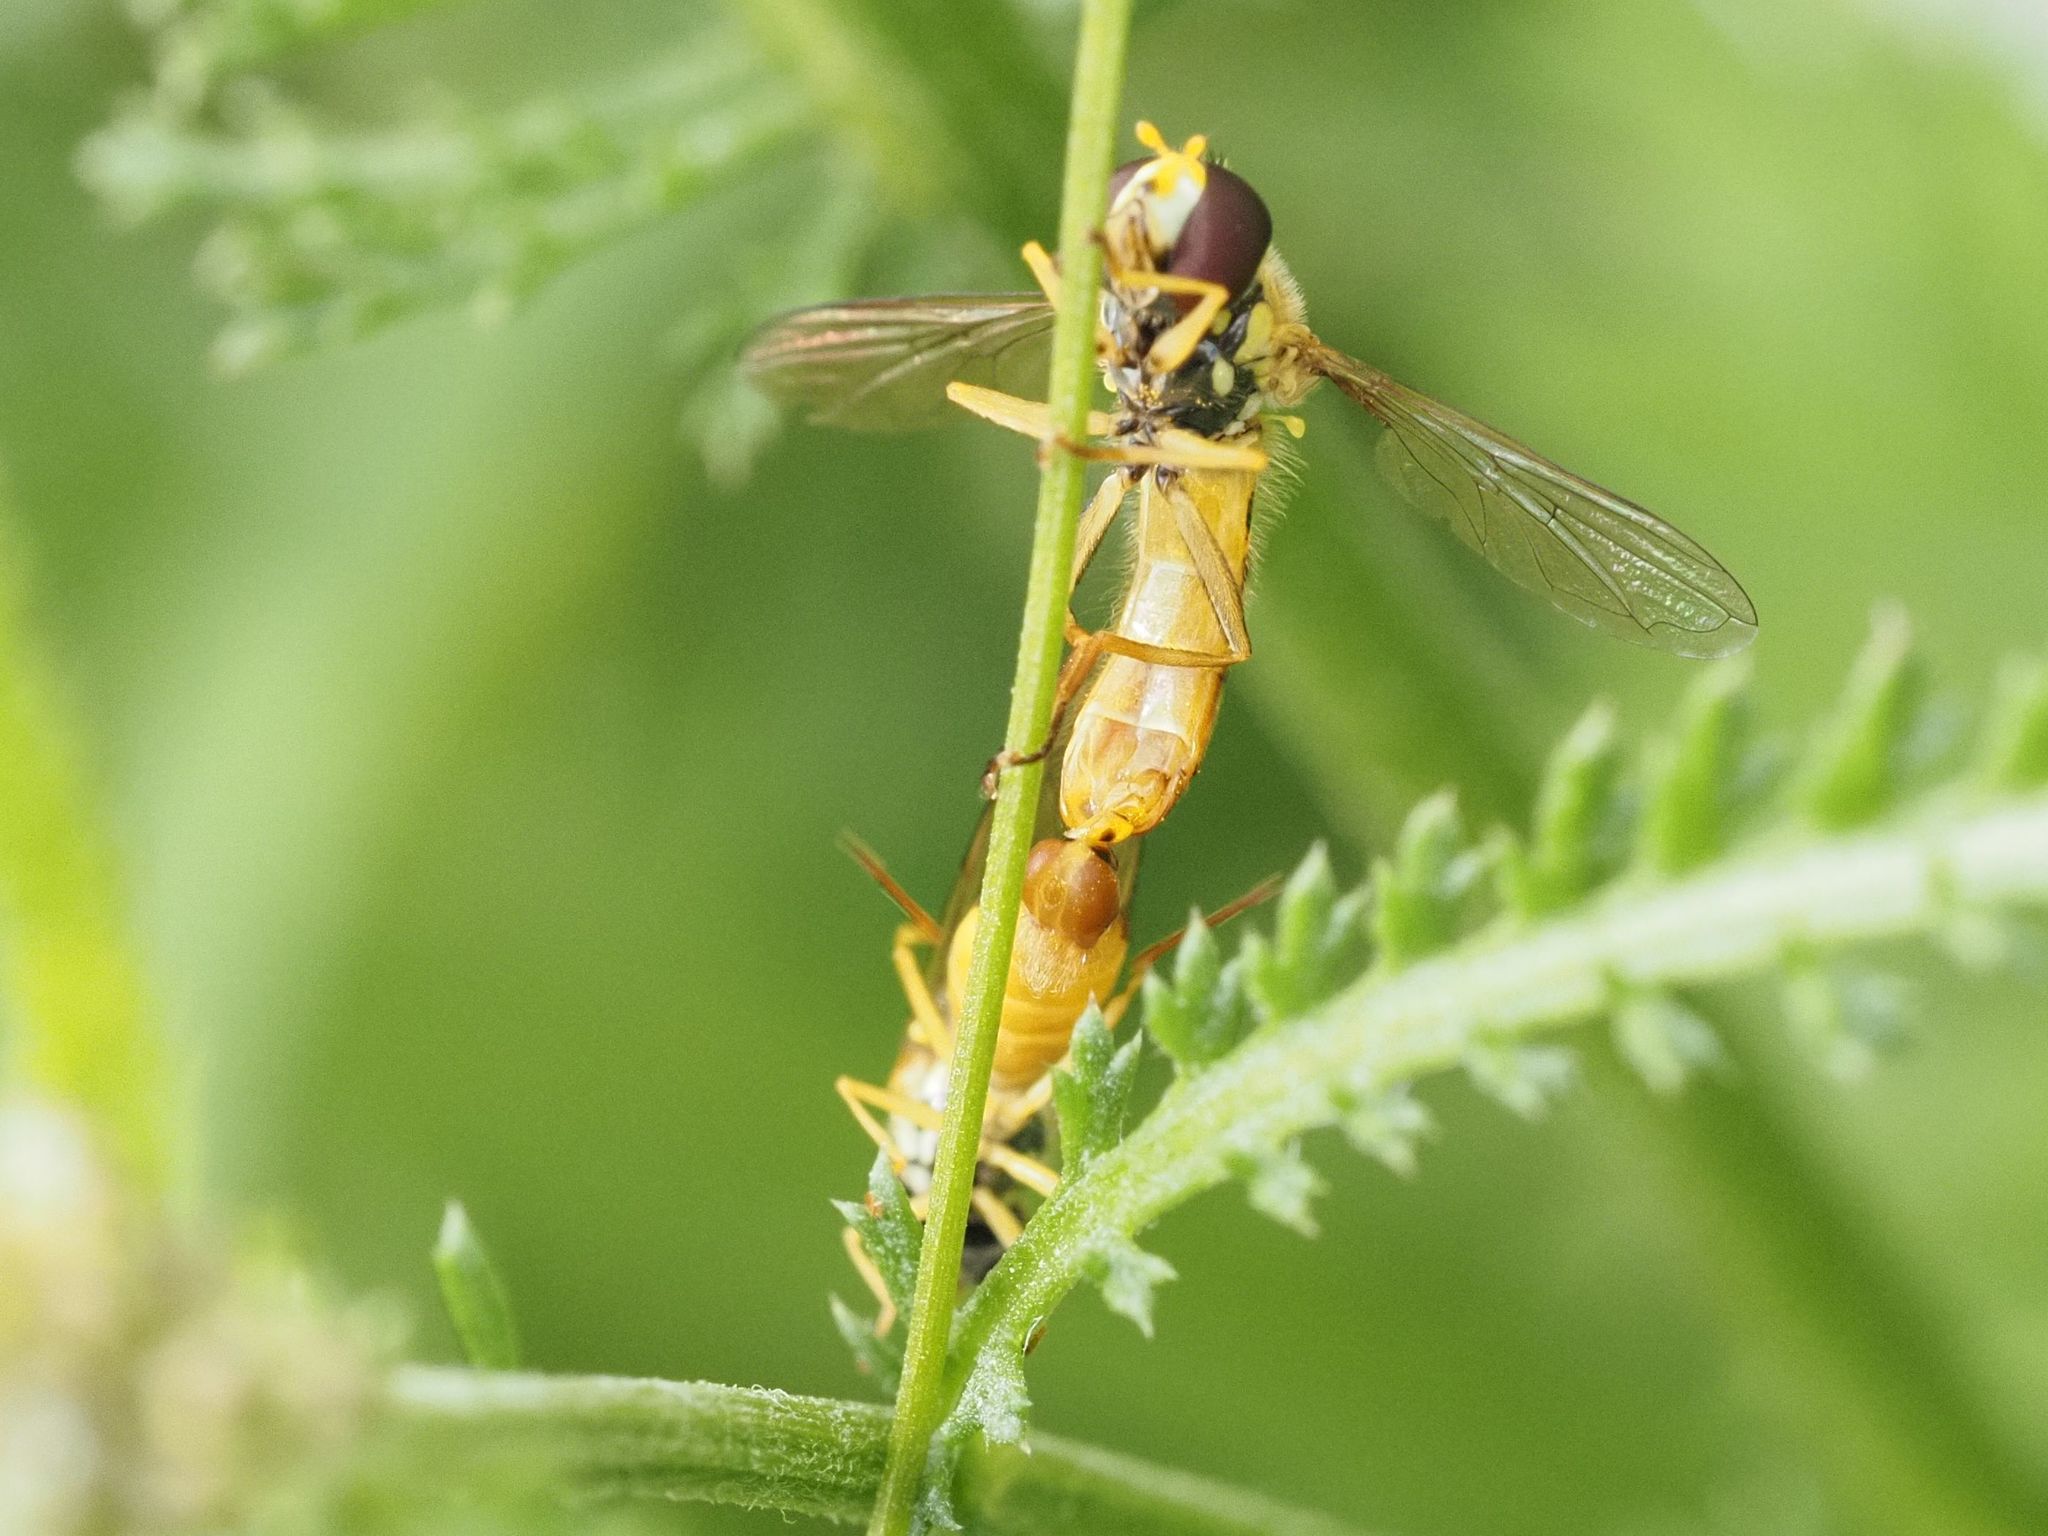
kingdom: Animalia
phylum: Arthropoda
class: Insecta
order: Diptera
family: Syrphidae
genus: Sphaerophoria
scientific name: Sphaerophoria
